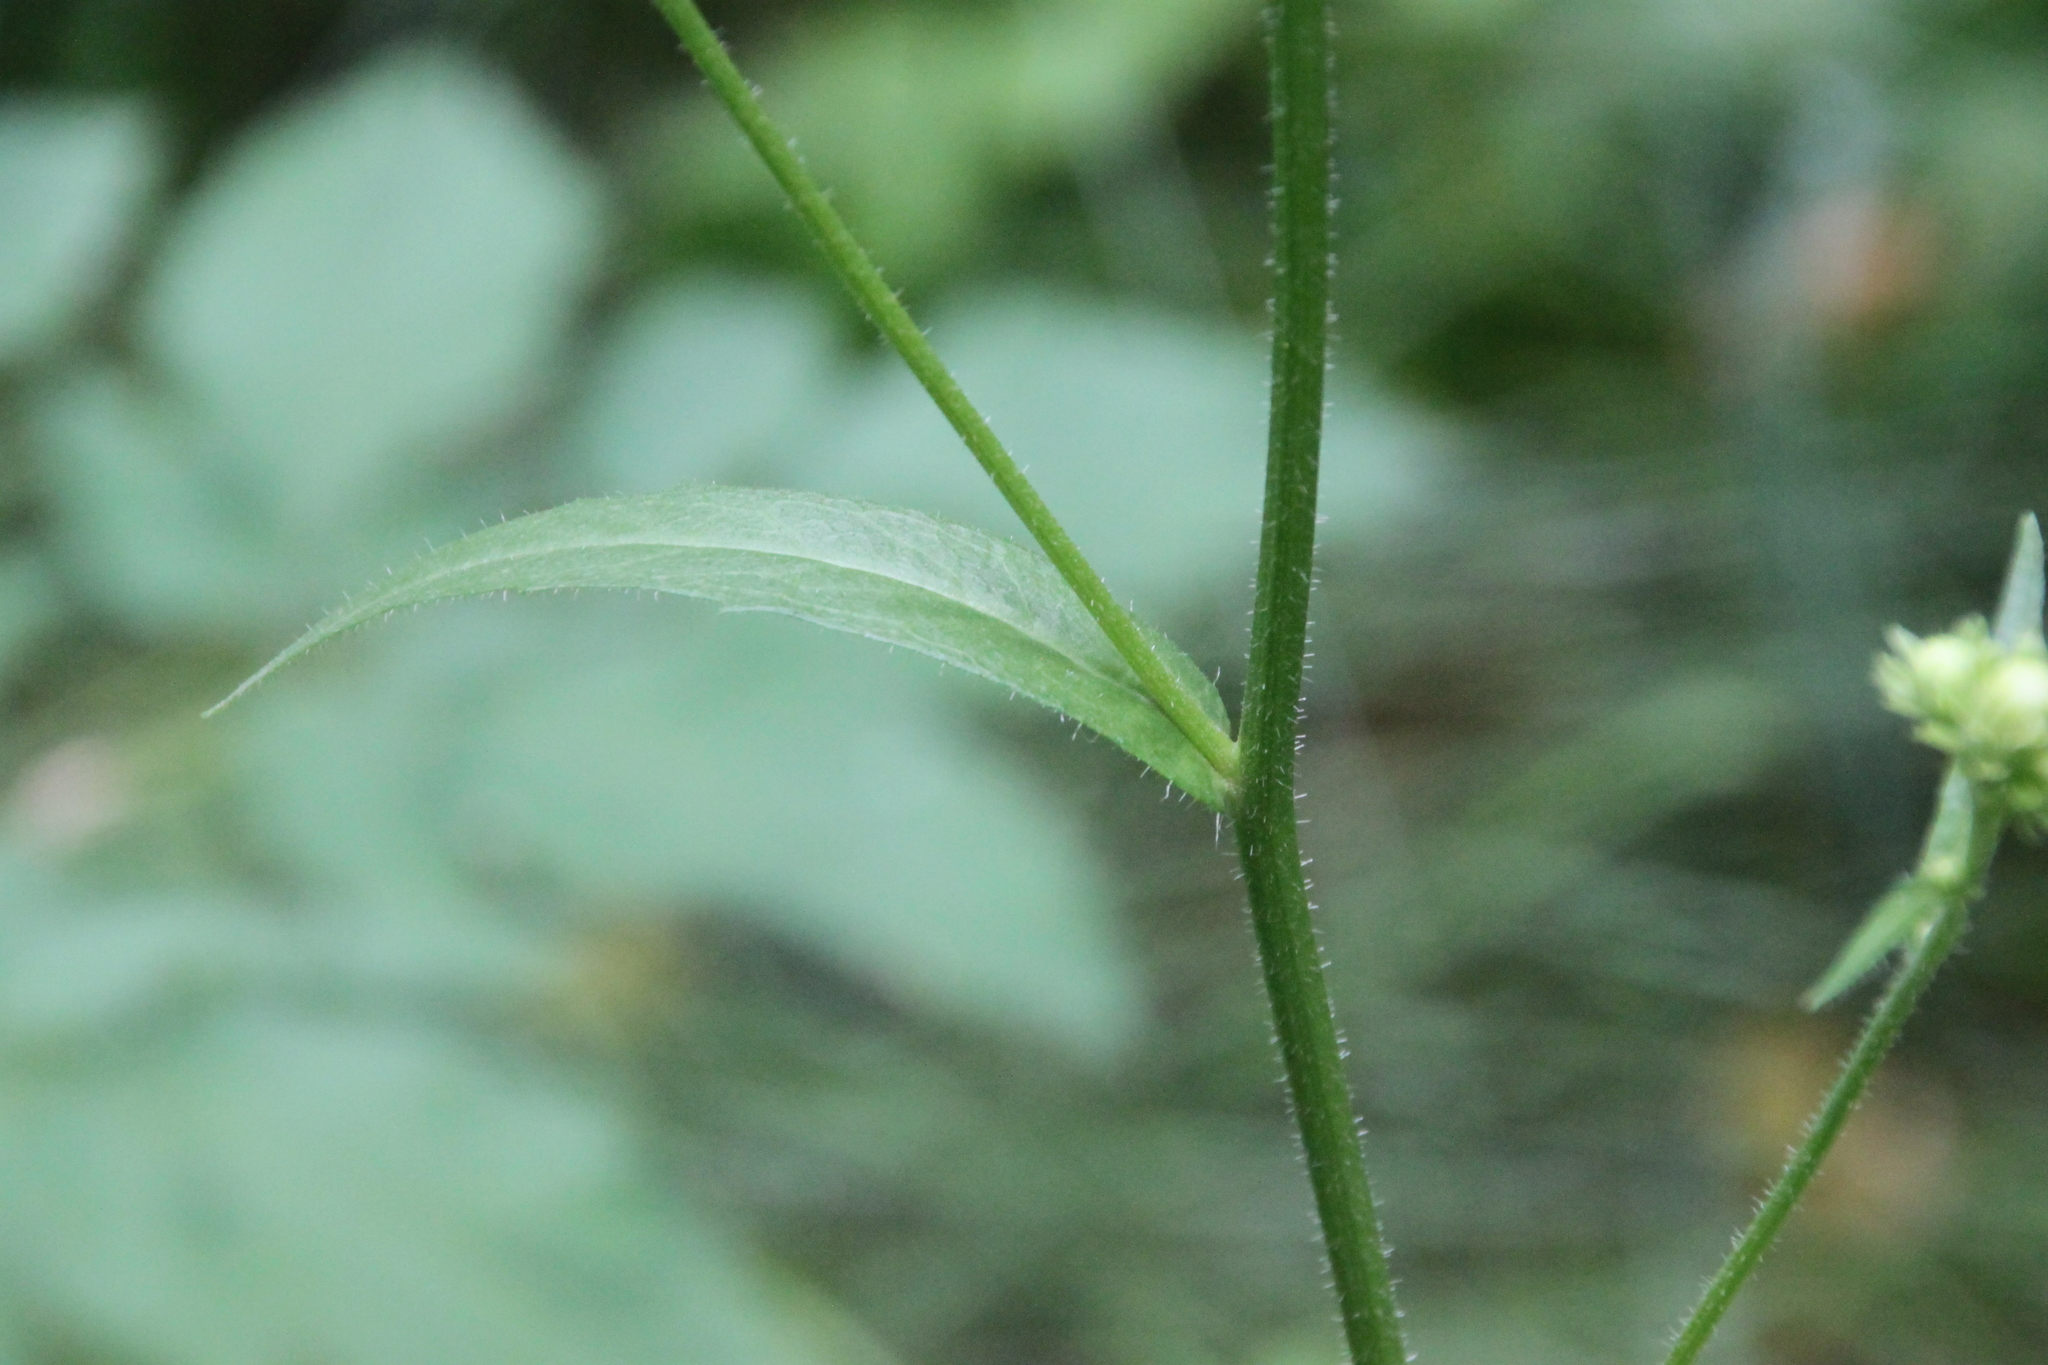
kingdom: Plantae
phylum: Tracheophyta
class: Magnoliopsida
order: Asterales
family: Asteraceae
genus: Picris
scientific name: Picris hieracioides
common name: Hawkweed oxtongue
